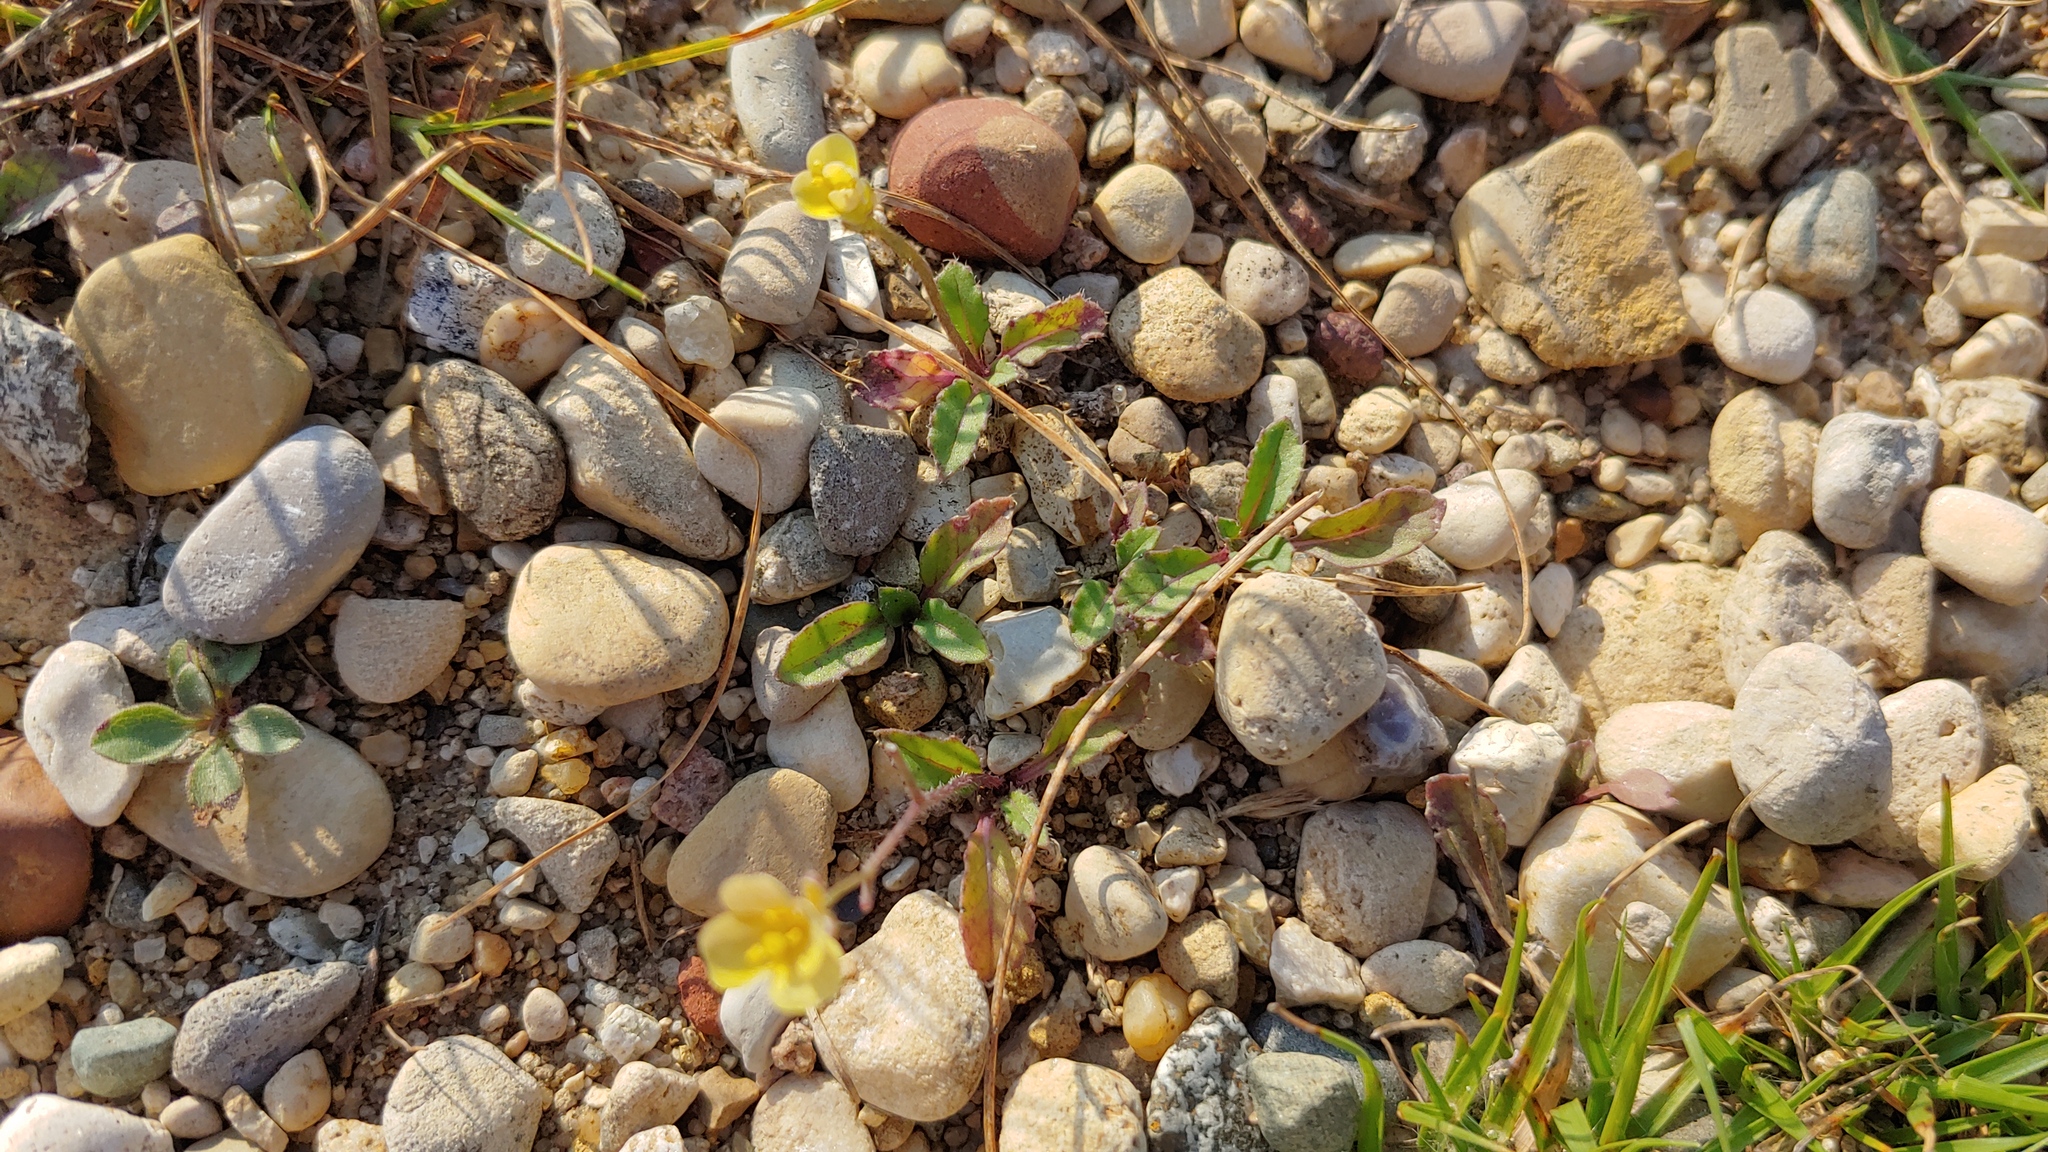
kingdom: Plantae
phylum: Tracheophyta
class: Magnoliopsida
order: Brassicales
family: Brassicaceae
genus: Diplotaxis
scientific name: Diplotaxis muralis
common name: Annual wall-rocket
